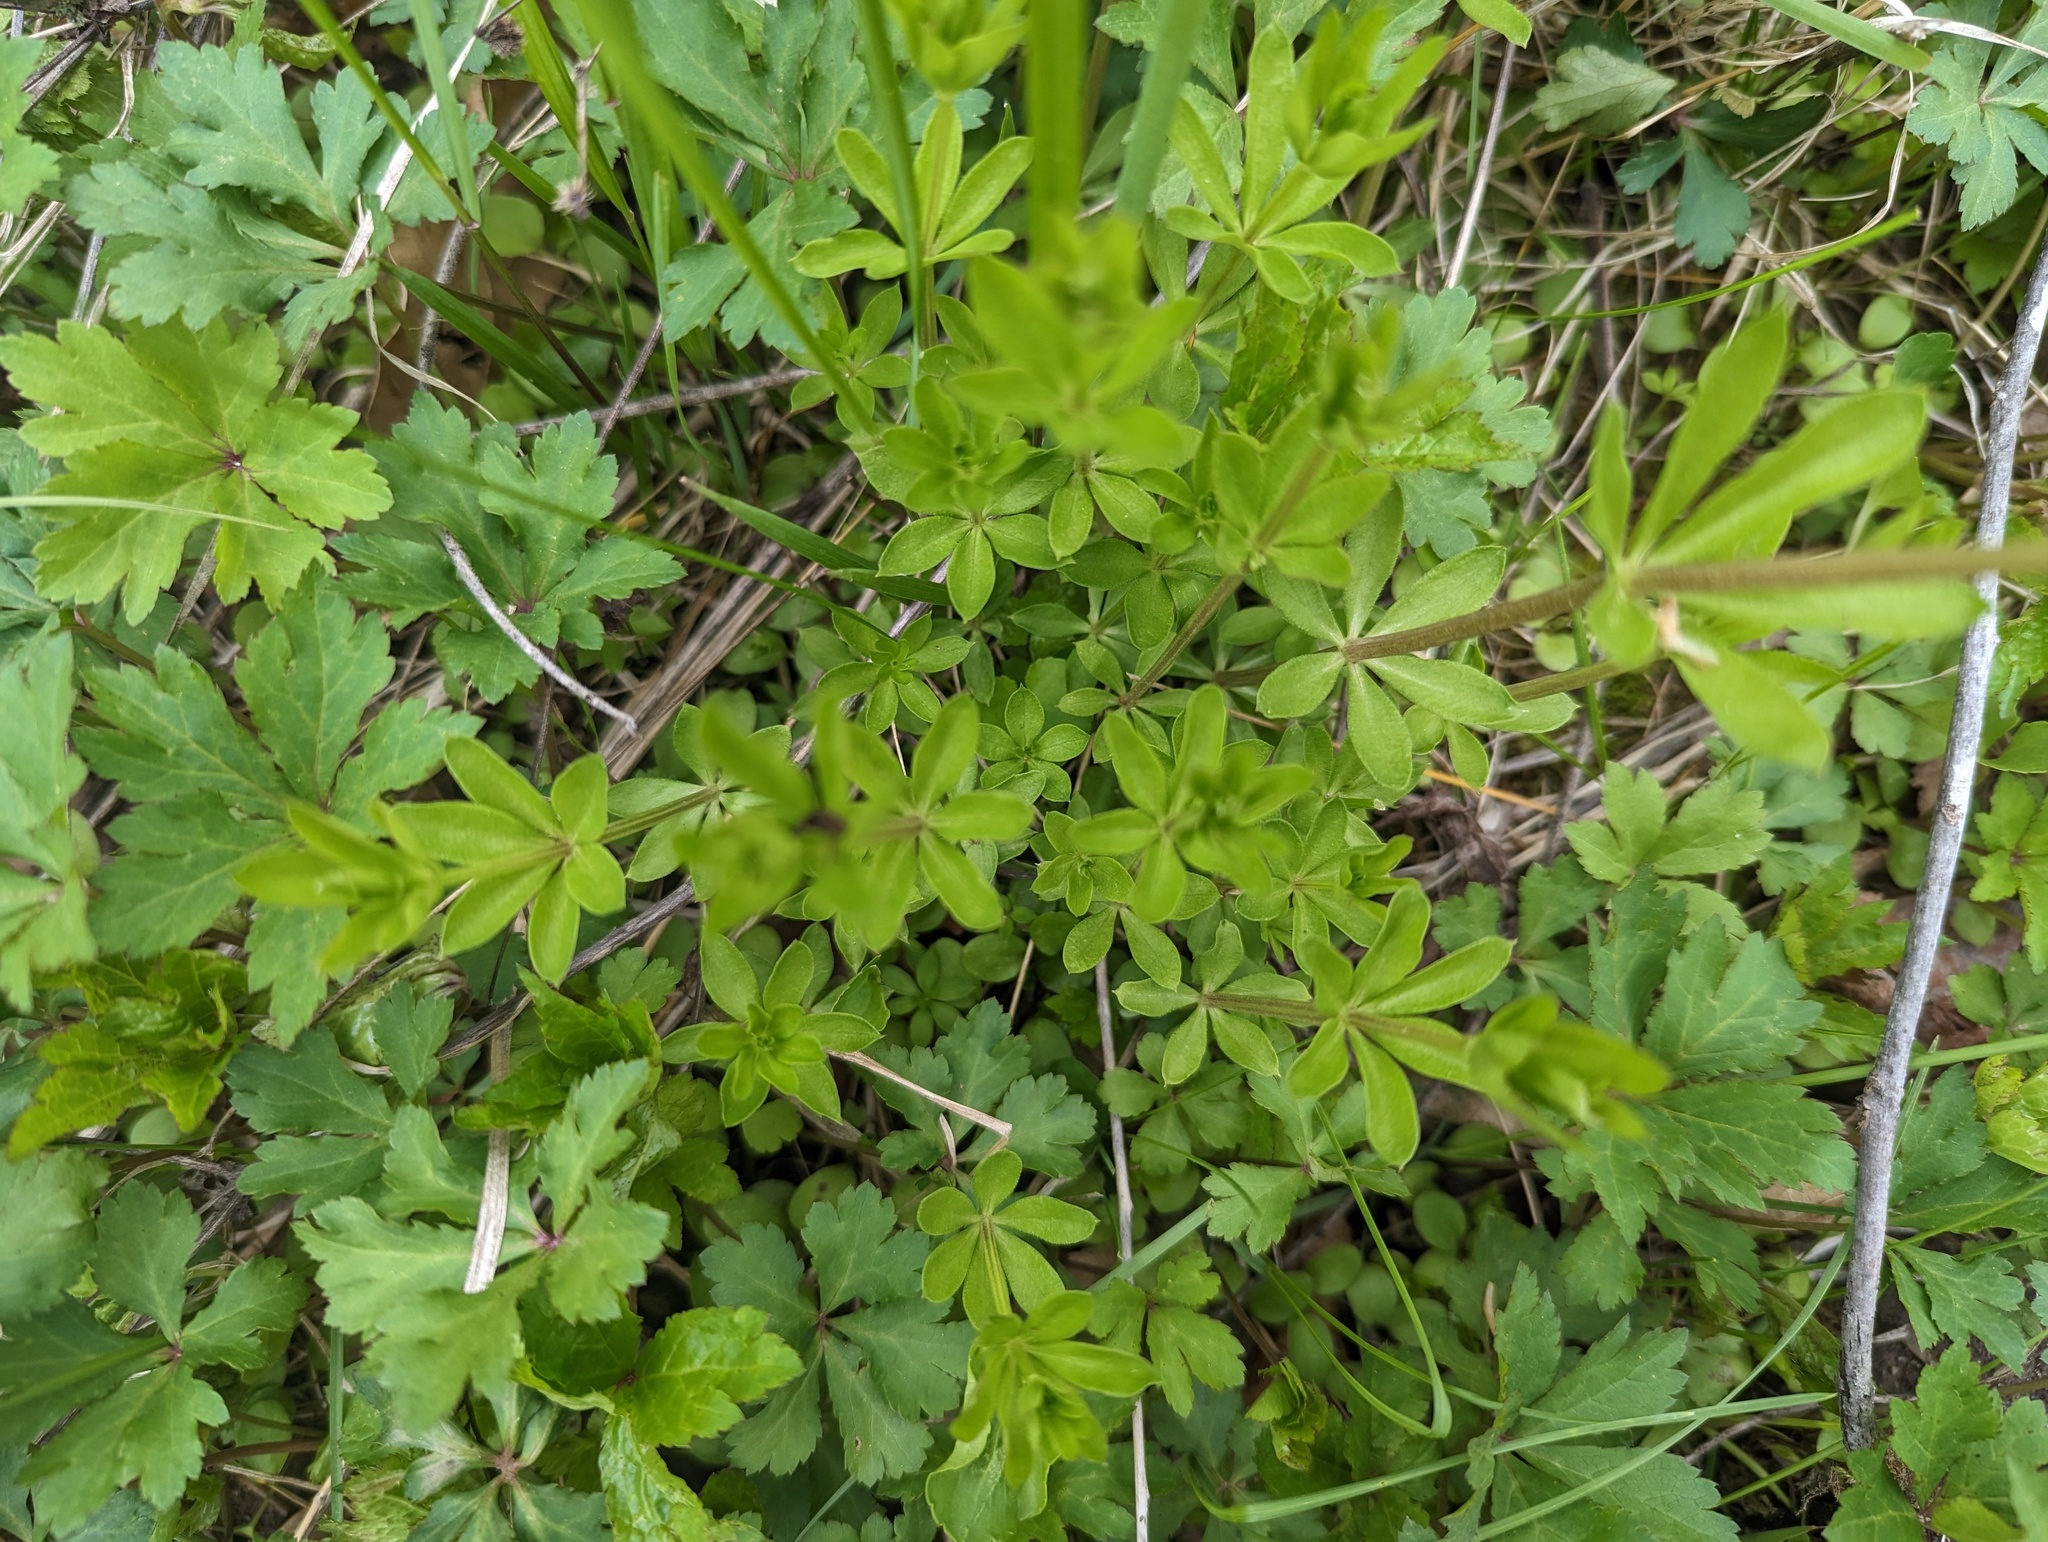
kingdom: Plantae
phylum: Tracheophyta
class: Magnoliopsida
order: Gentianales
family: Rubiaceae
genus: Galium
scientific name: Galium triflorum
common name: Fragrant bedstraw
